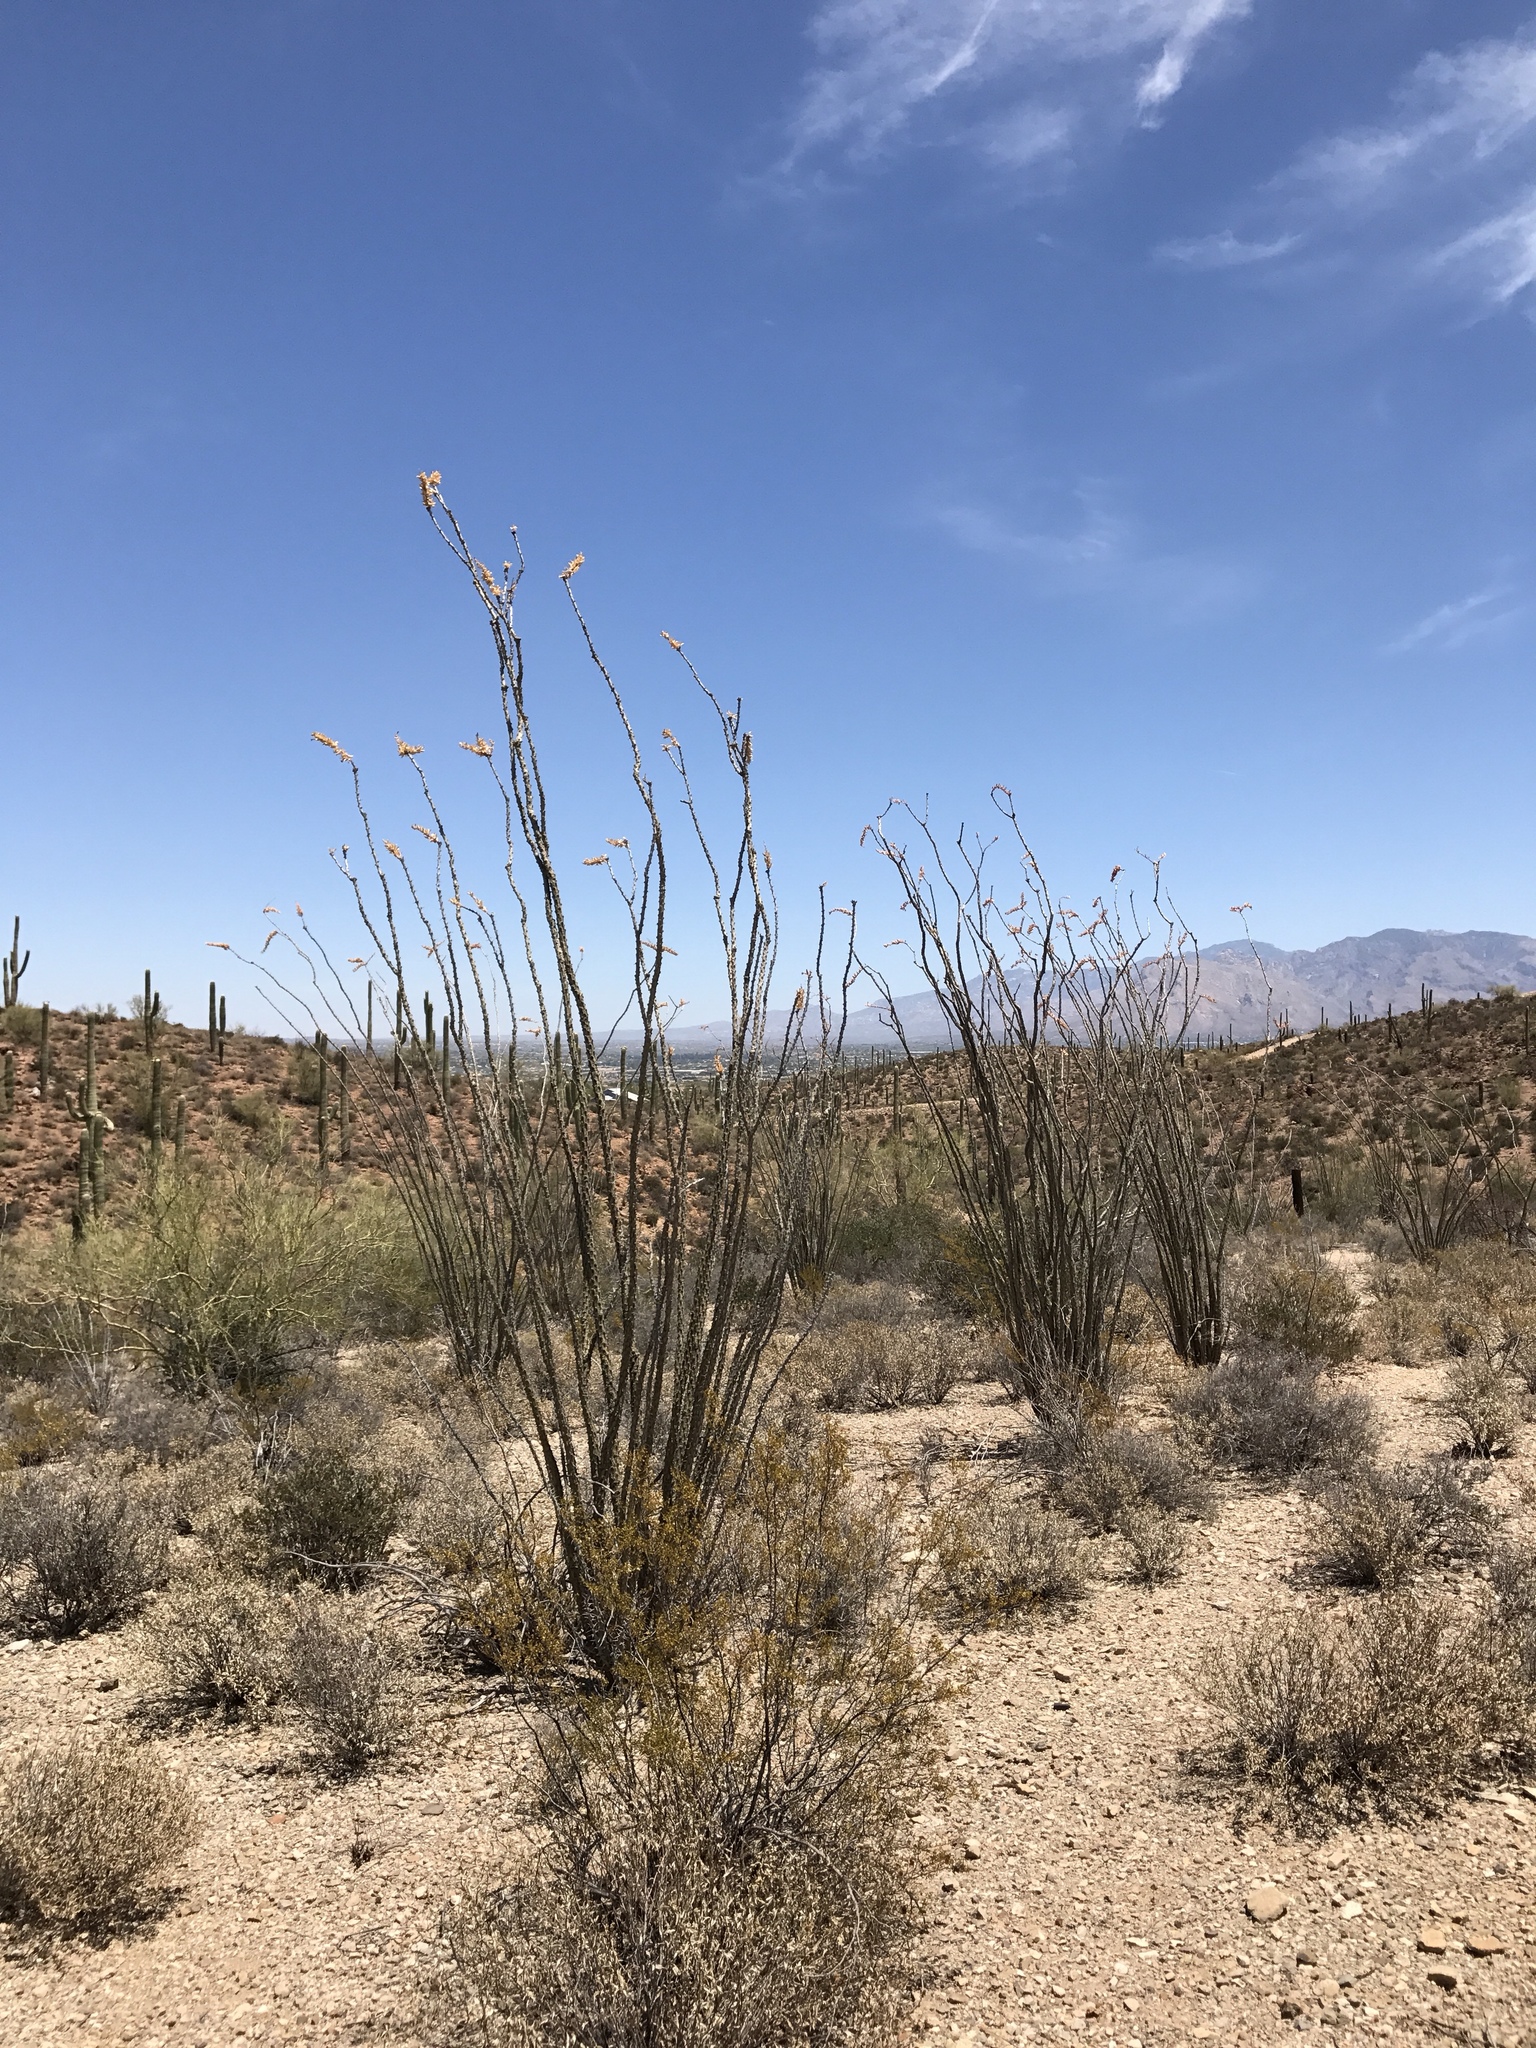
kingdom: Plantae
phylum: Tracheophyta
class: Magnoliopsida
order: Ericales
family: Fouquieriaceae
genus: Fouquieria
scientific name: Fouquieria splendens
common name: Vine-cactus
